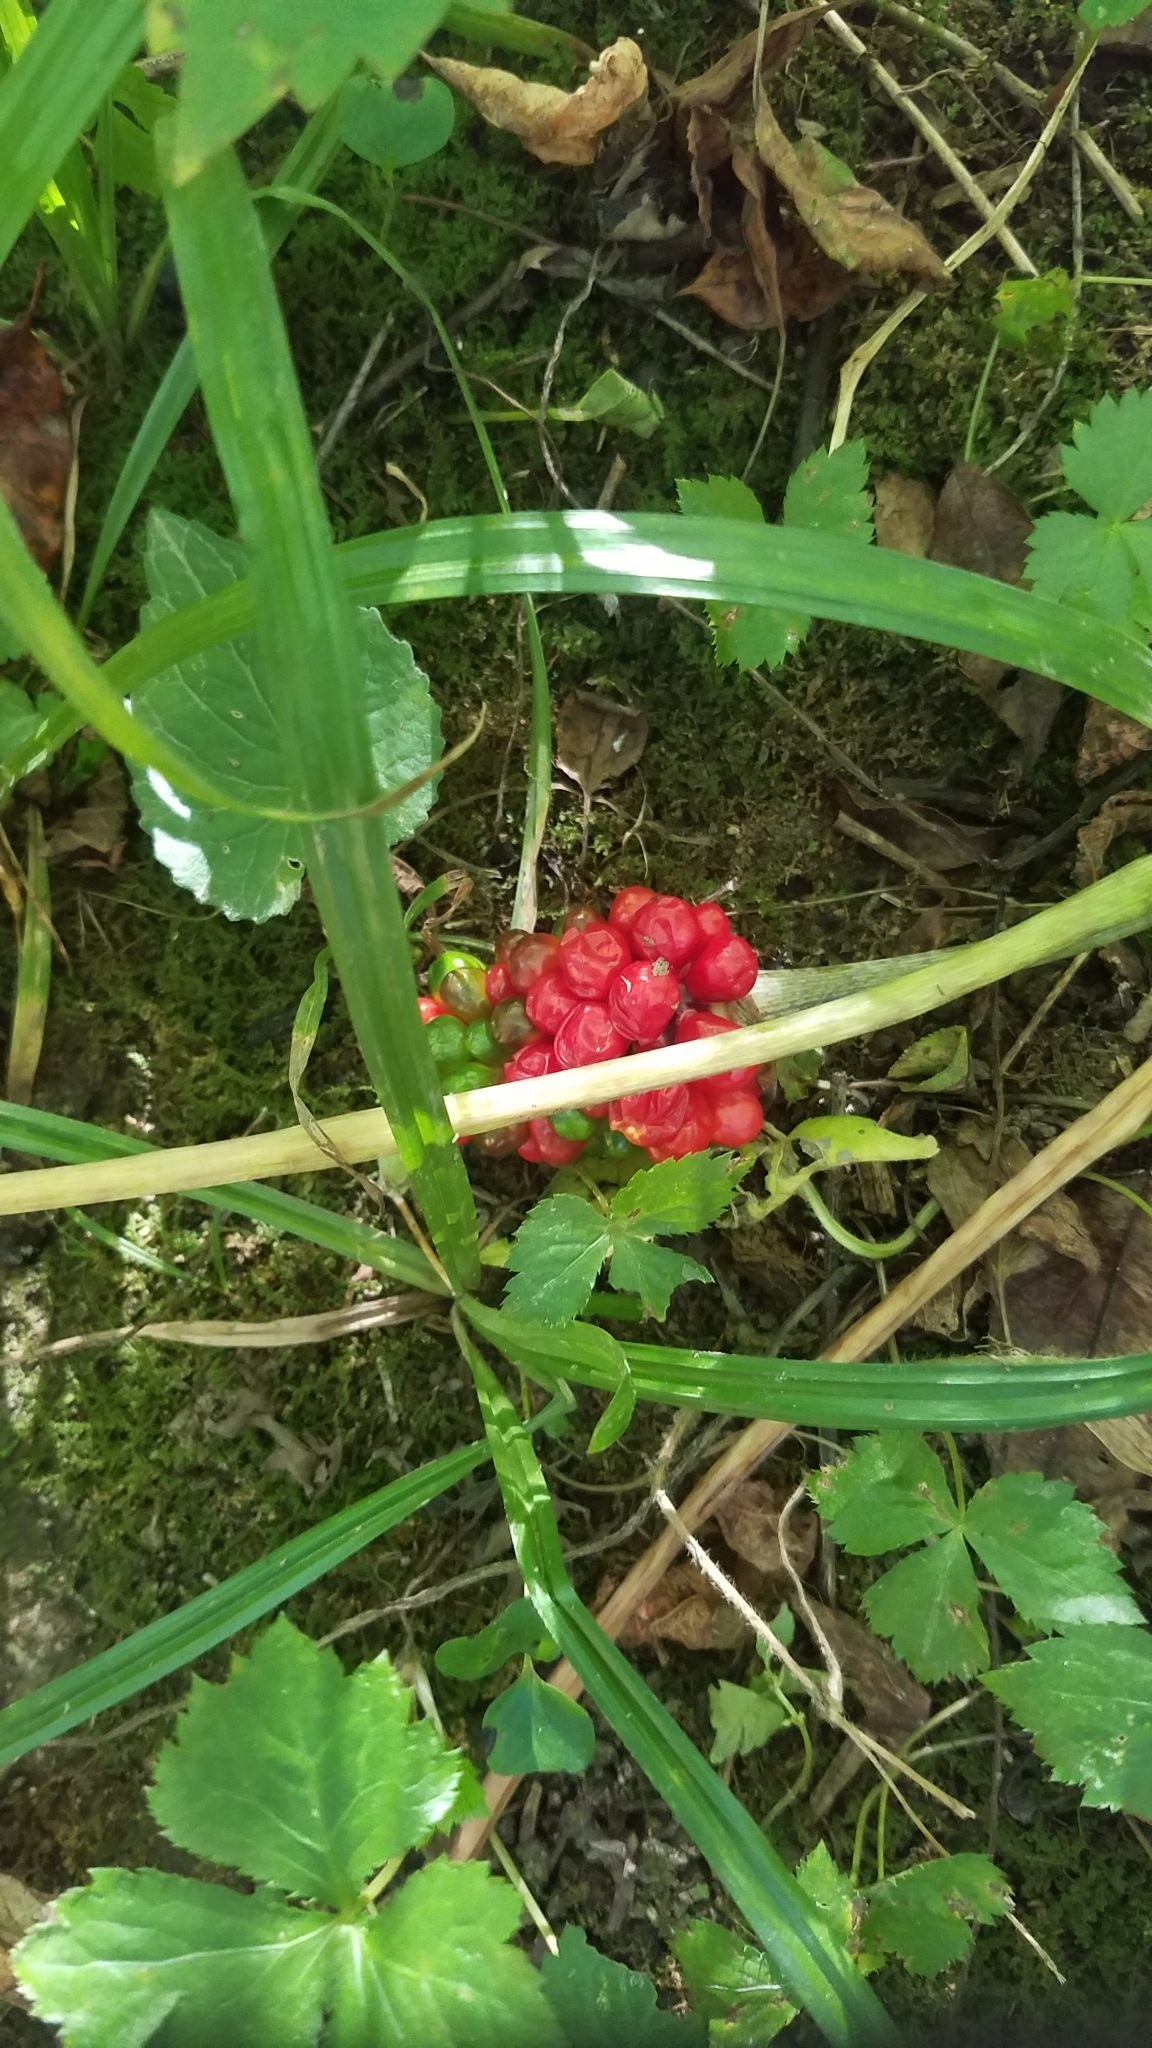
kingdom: Plantae
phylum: Tracheophyta
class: Liliopsida
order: Alismatales
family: Araceae
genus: Arisaema
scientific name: Arisaema triphyllum
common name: Jack-in-the-pulpit
